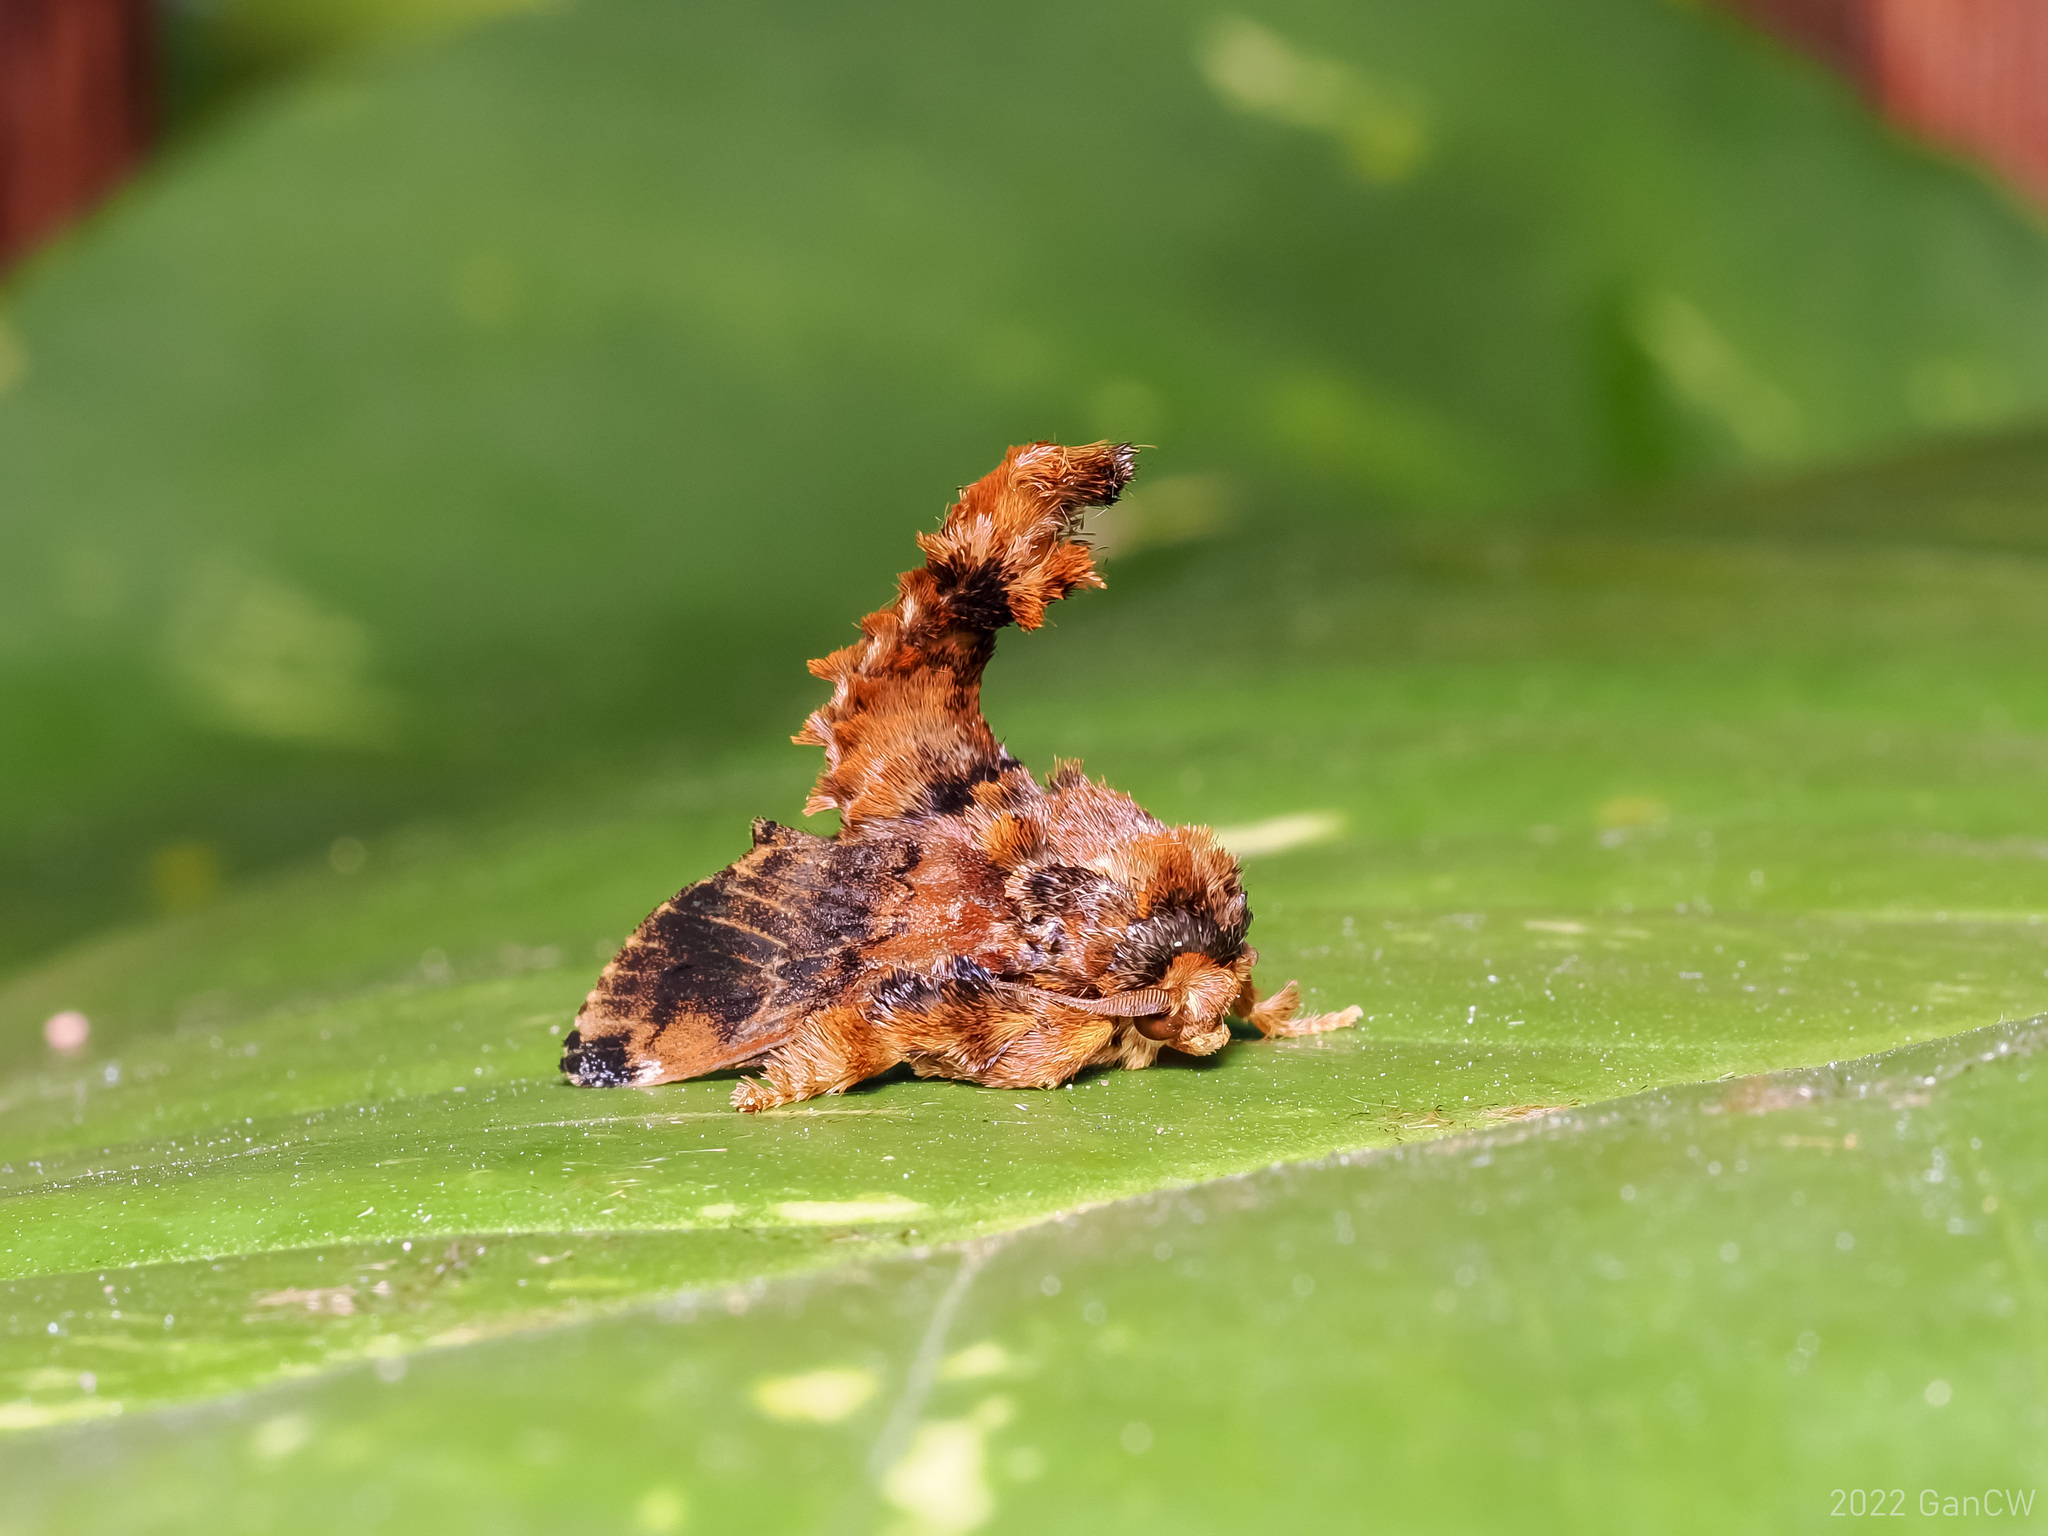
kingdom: Animalia
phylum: Arthropoda
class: Insecta
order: Lepidoptera
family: Limacodidae
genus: Cheromettia
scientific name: Cheromettia sumatrensis
